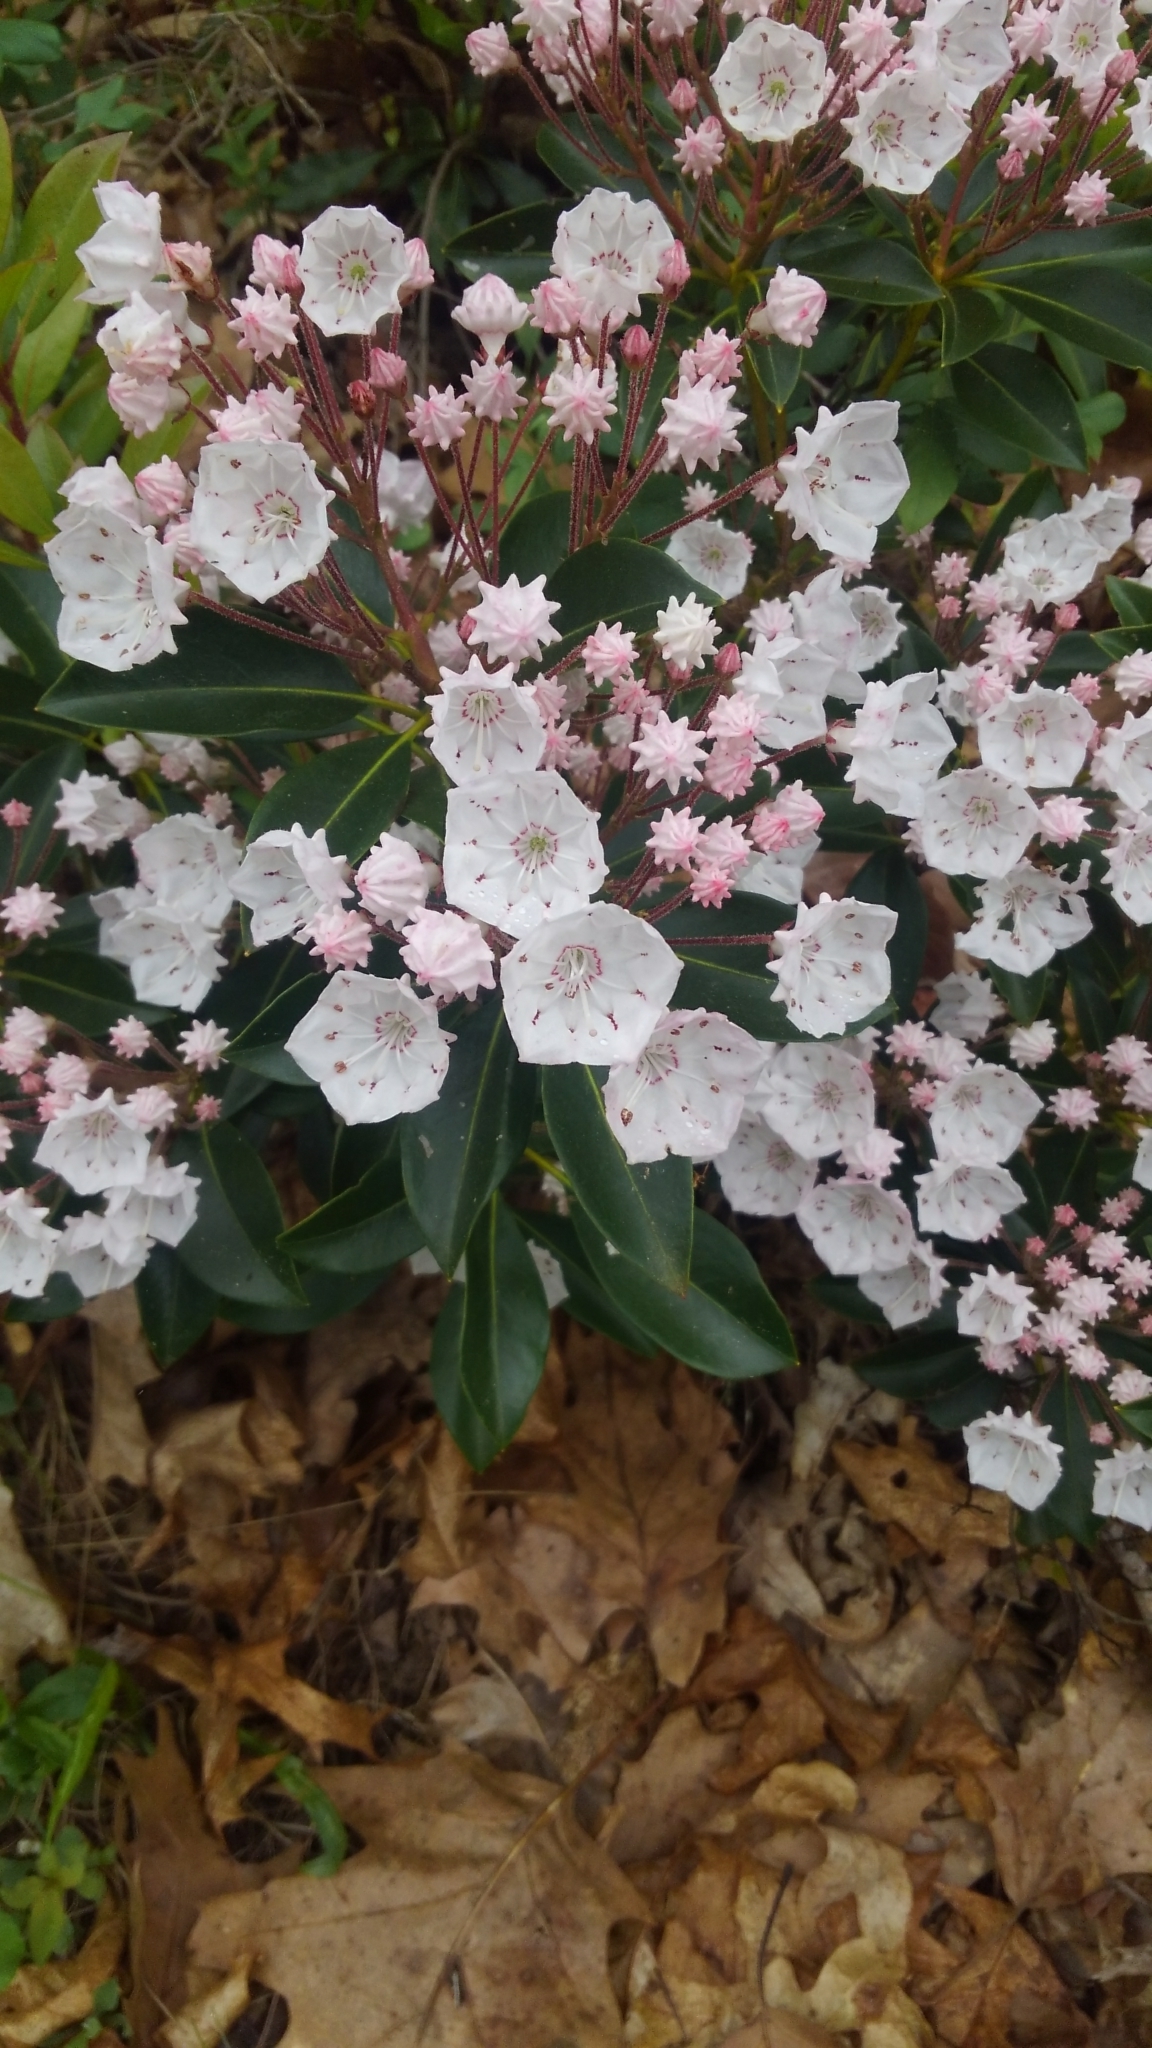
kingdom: Plantae
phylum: Tracheophyta
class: Magnoliopsida
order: Ericales
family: Ericaceae
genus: Kalmia
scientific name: Kalmia latifolia
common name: Mountain-laurel
